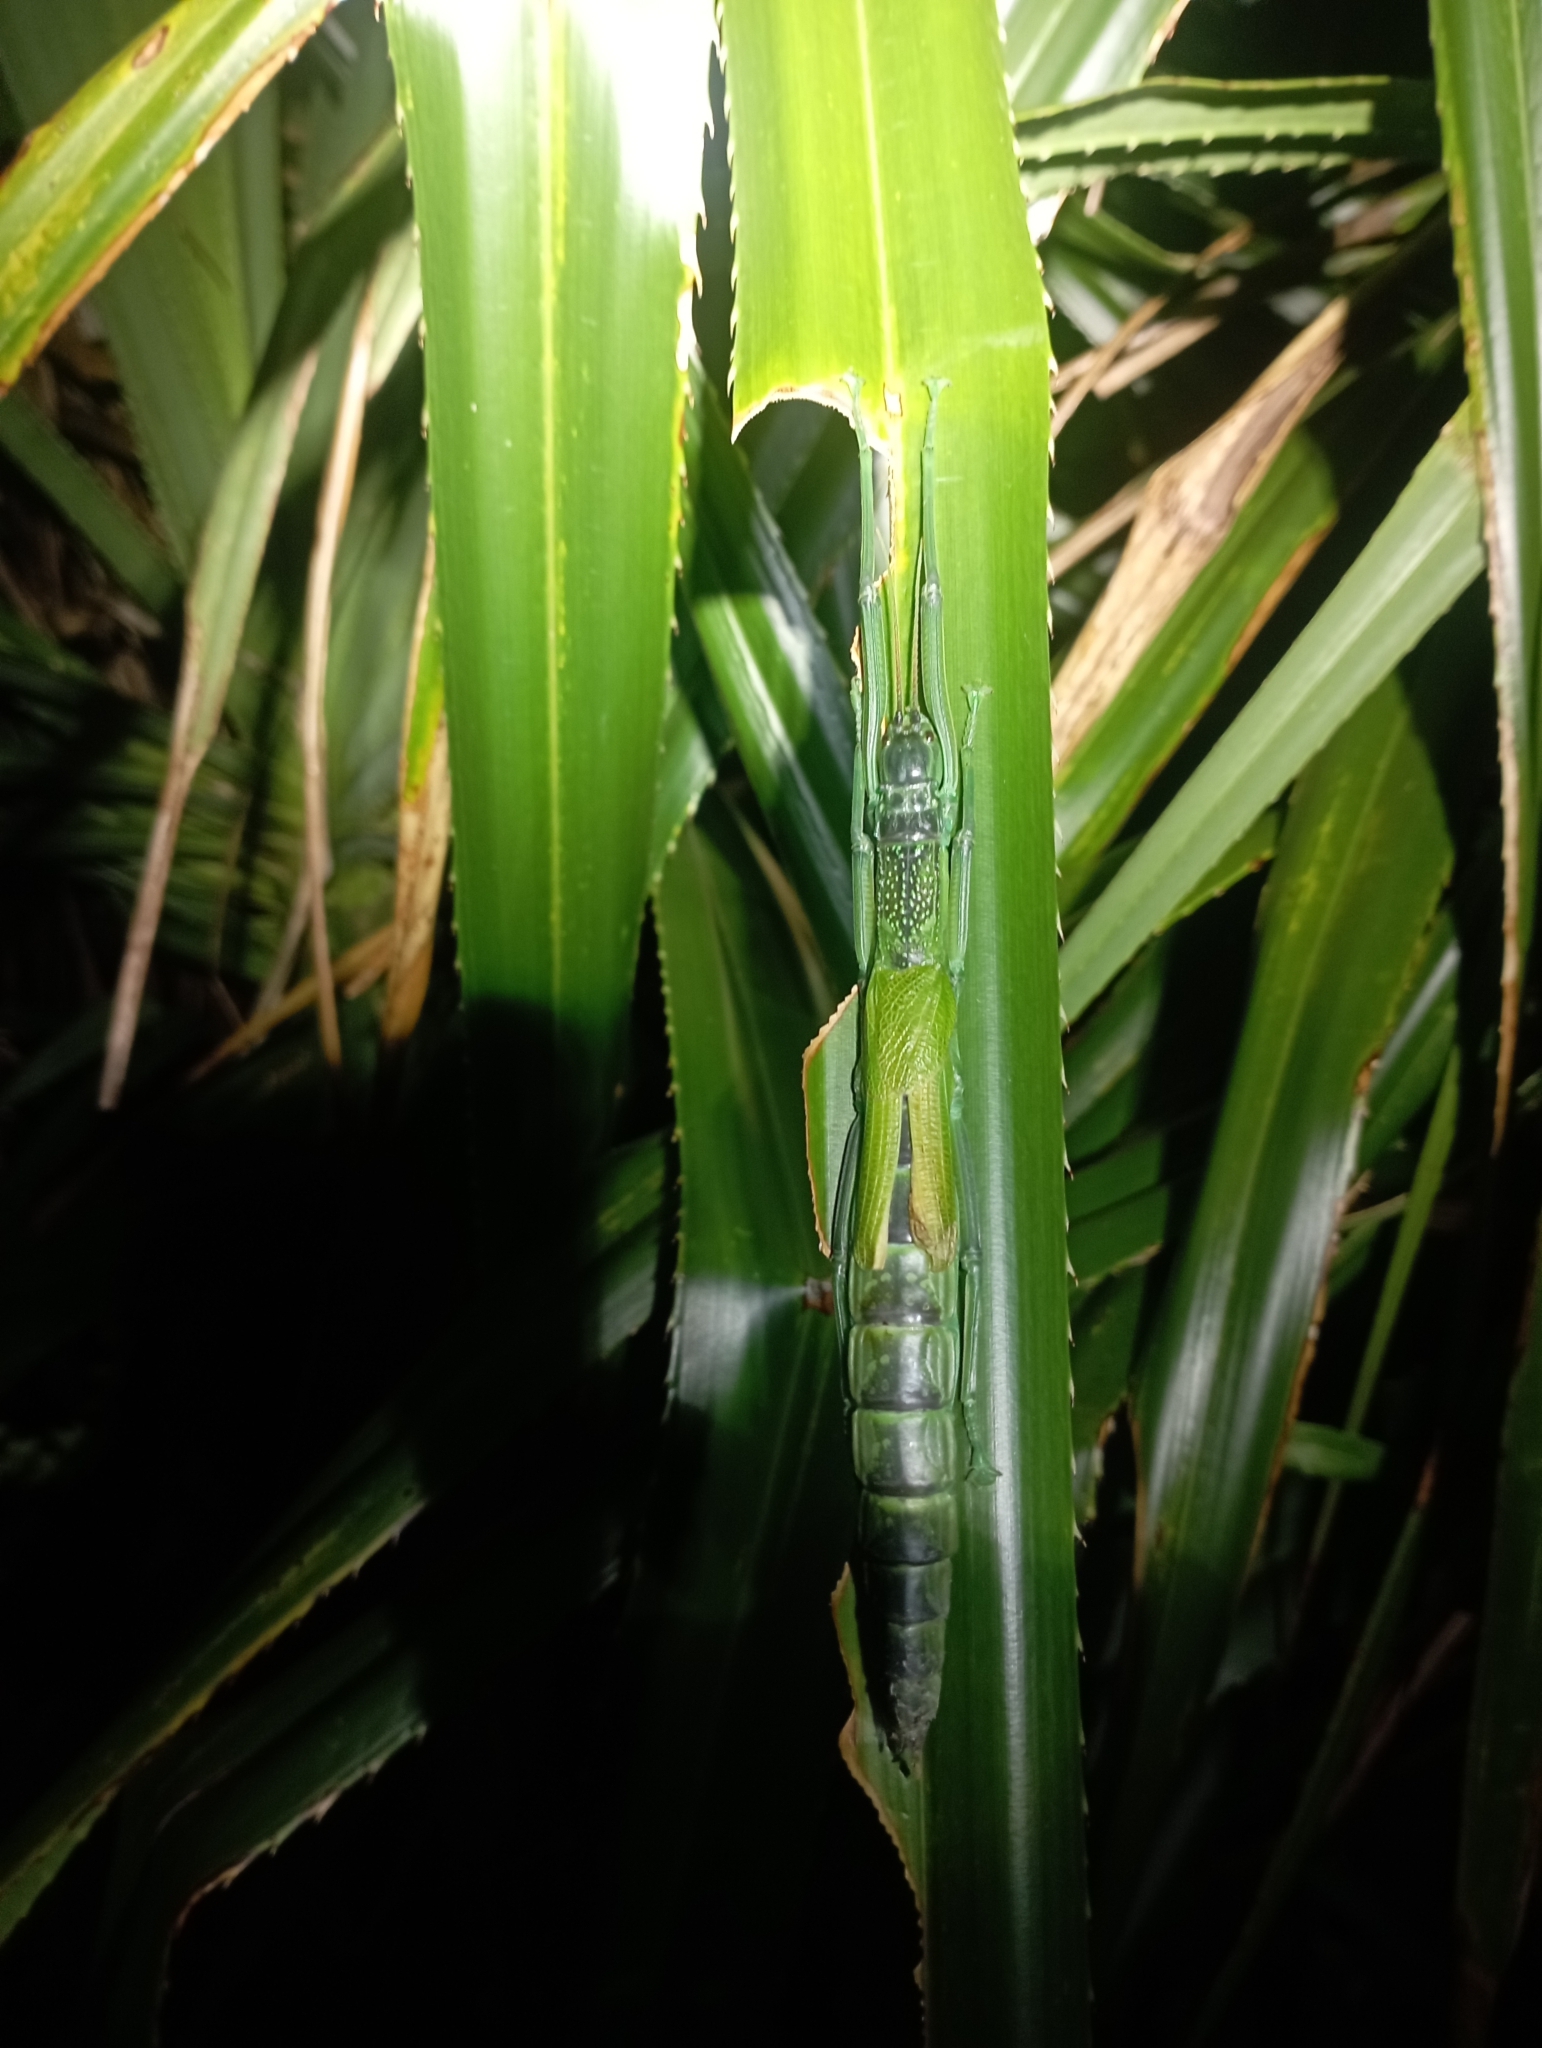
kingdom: Animalia
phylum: Arthropoda
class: Insecta
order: Phasmida
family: Phasmatidae
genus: Megacrania
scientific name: Megacrania tsudai
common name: Tsuda's giant stick-insect
